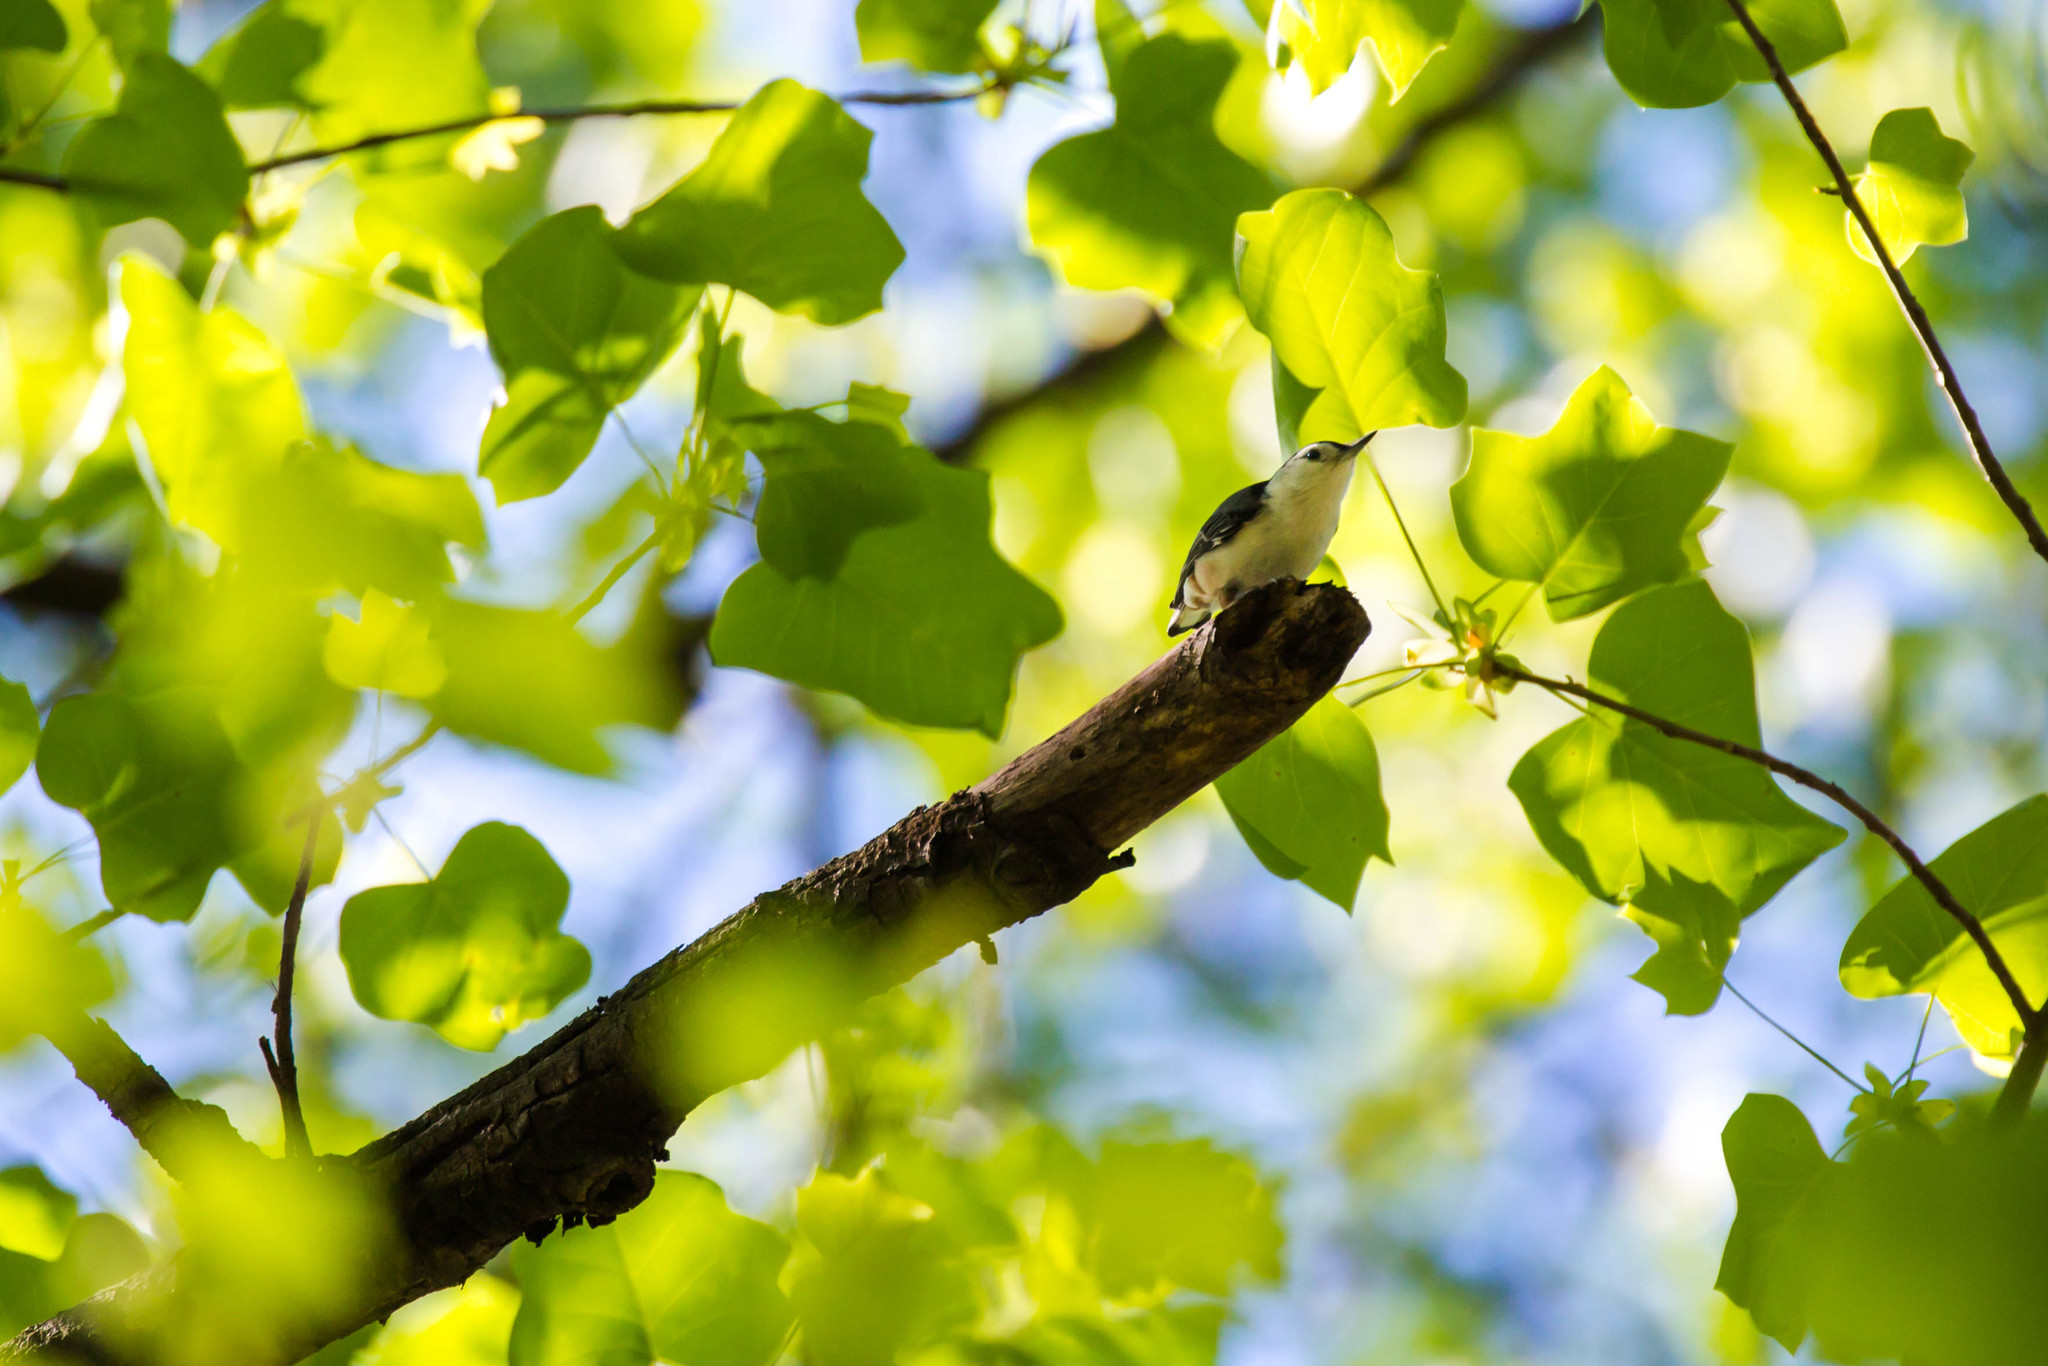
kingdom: Animalia
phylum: Chordata
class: Aves
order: Passeriformes
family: Sittidae
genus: Sitta
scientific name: Sitta carolinensis
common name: White-breasted nuthatch
